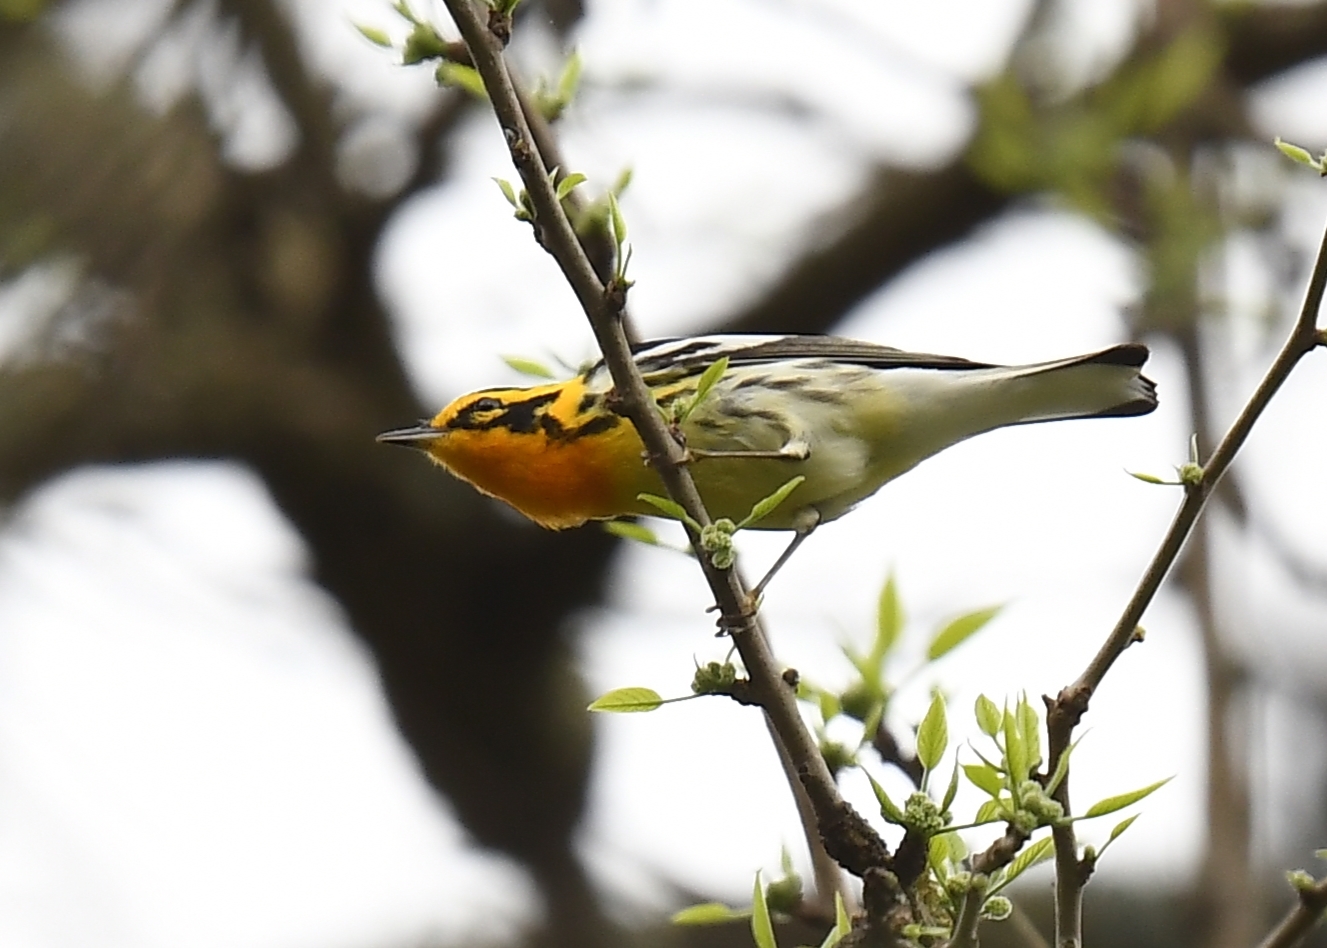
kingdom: Animalia
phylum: Chordata
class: Aves
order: Passeriformes
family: Parulidae
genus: Setophaga
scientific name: Setophaga fusca
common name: Blackburnian warbler
